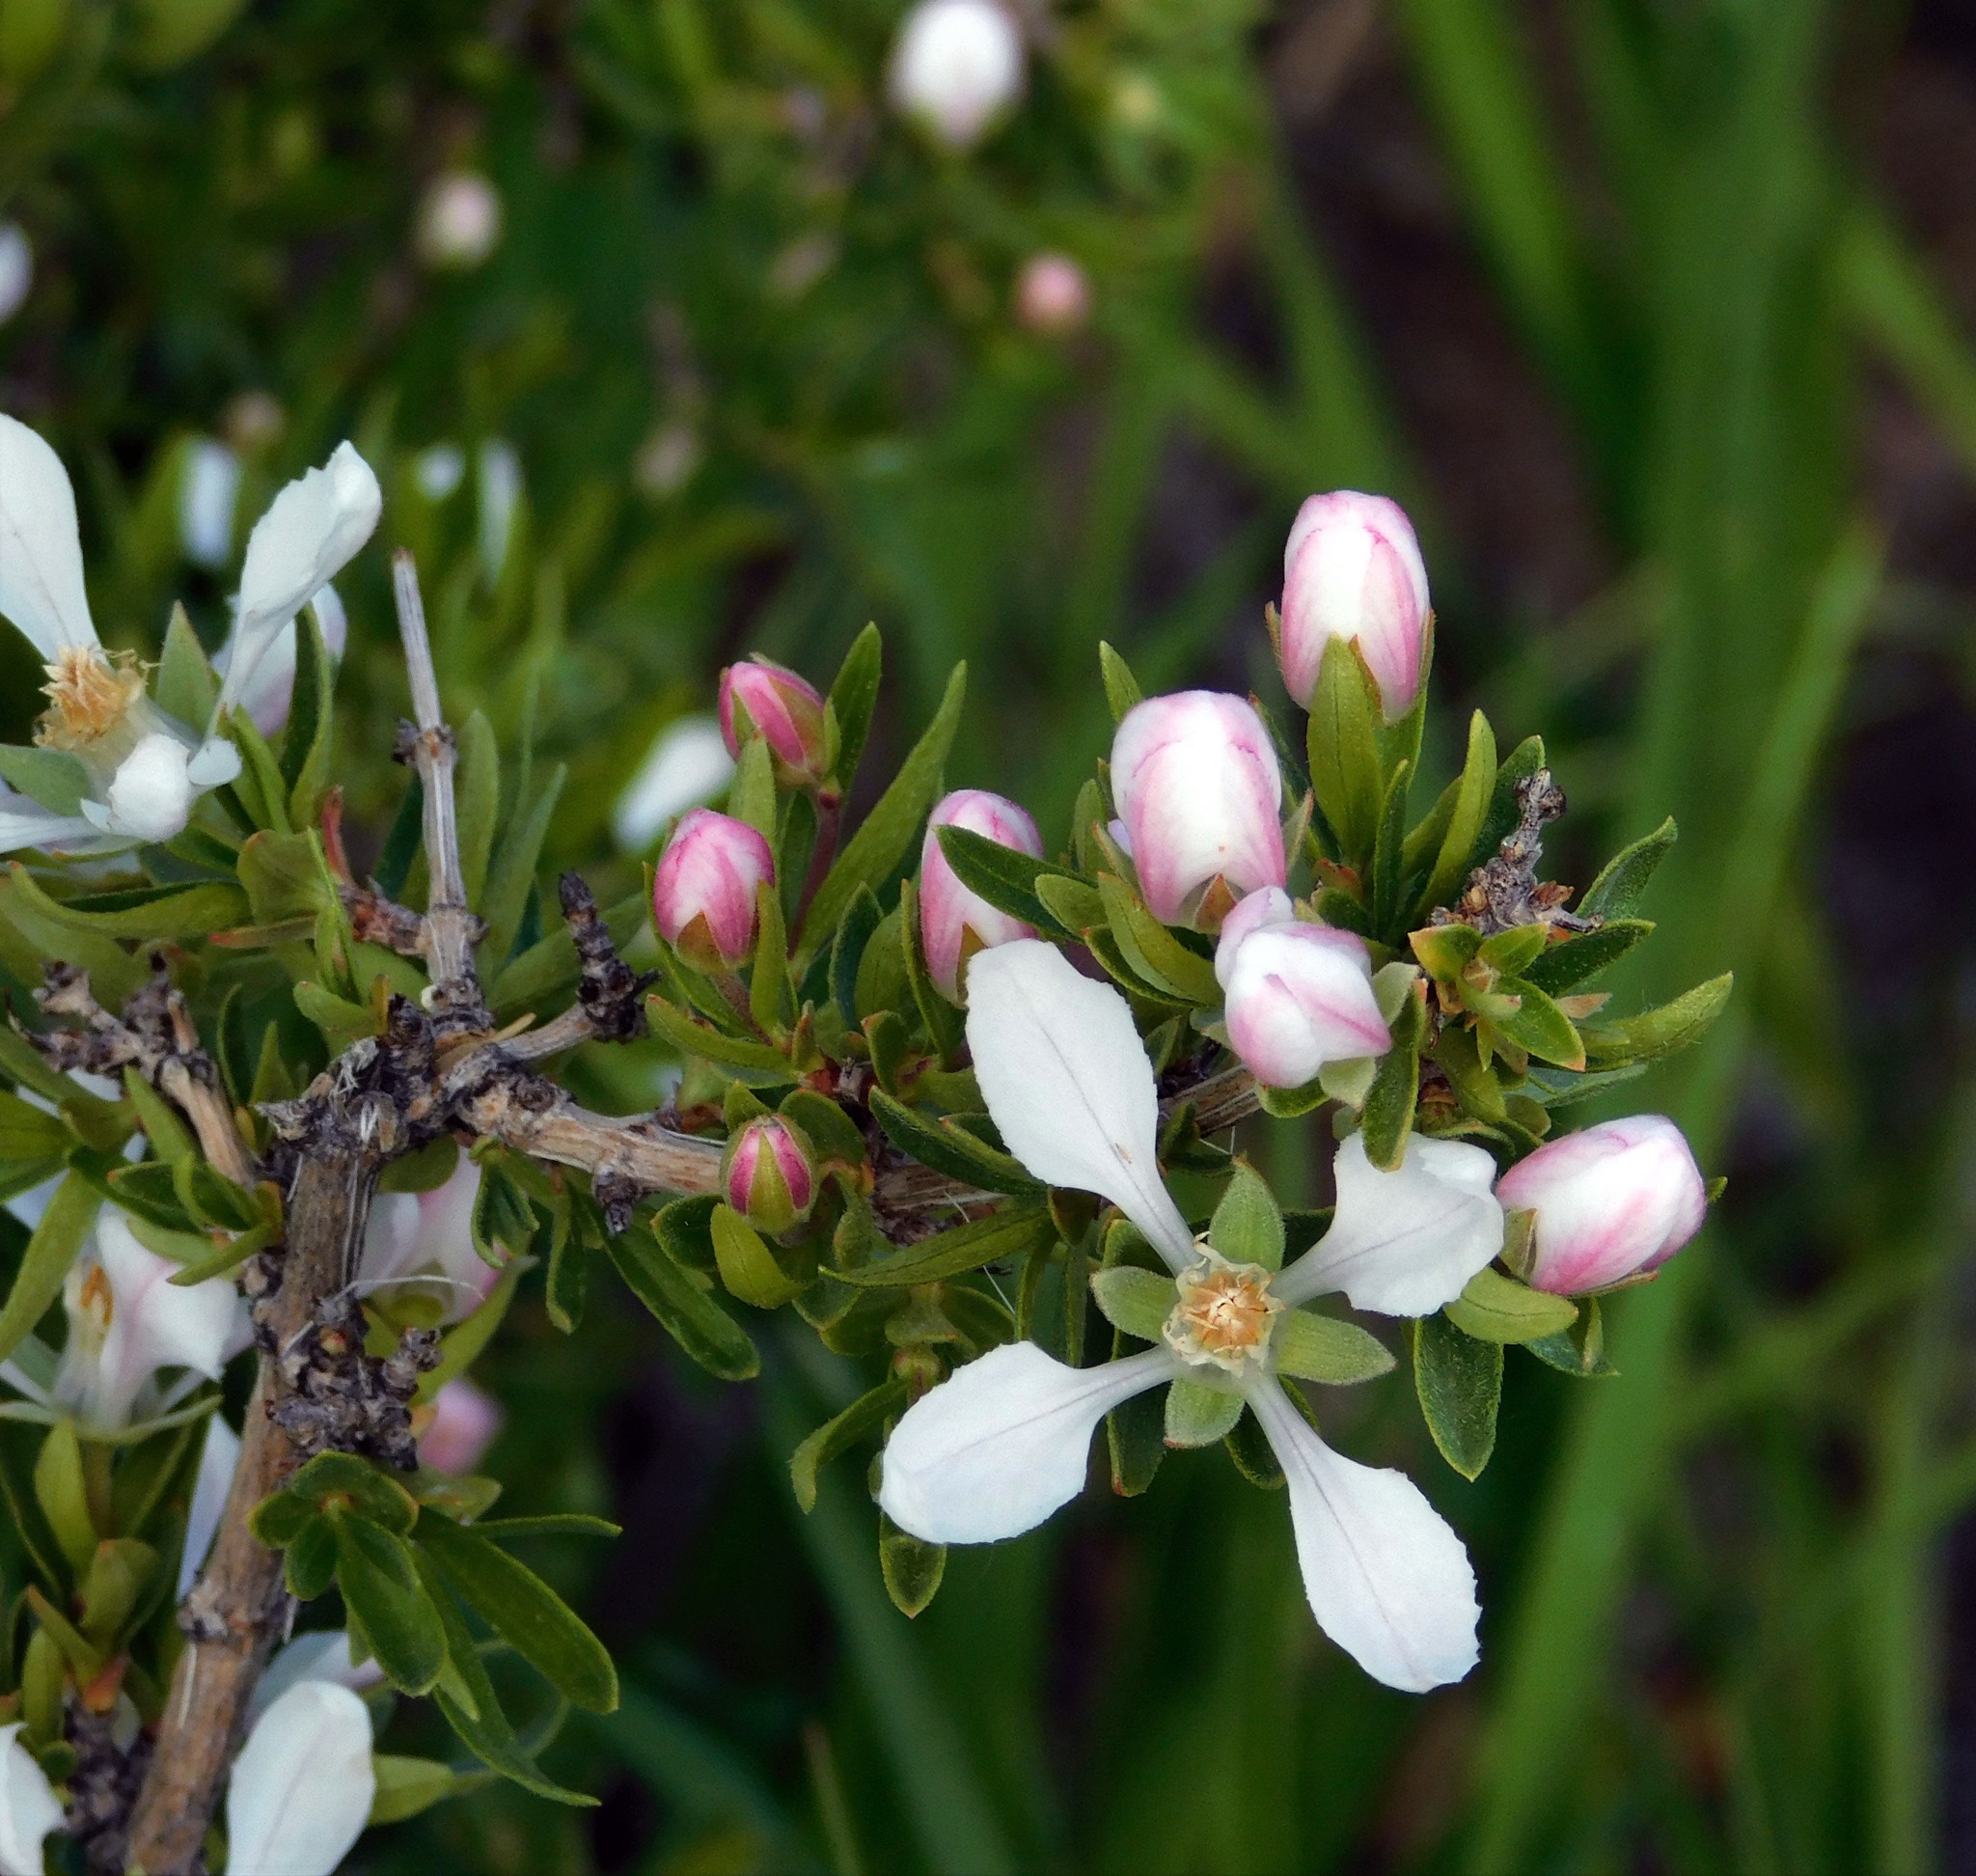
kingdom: Plantae
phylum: Tracheophyta
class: Magnoliopsida
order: Cornales
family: Hydrangeaceae
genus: Fendlera
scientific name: Fendlera rupicola
